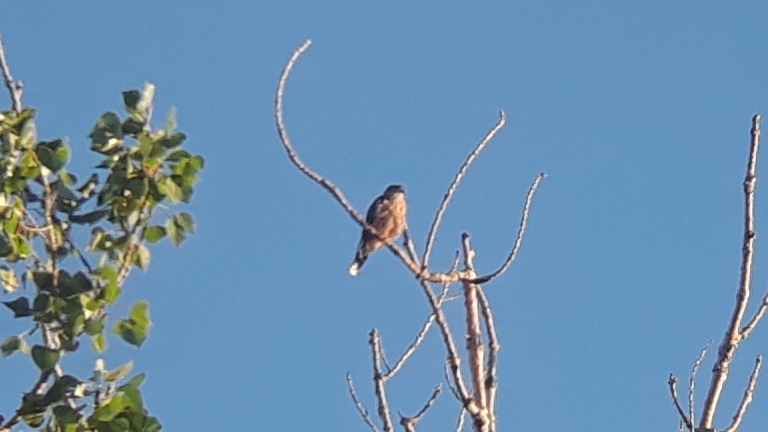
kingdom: Animalia
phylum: Chordata
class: Aves
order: Falconiformes
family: Falconidae
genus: Falco
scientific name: Falco columbarius
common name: Merlin
